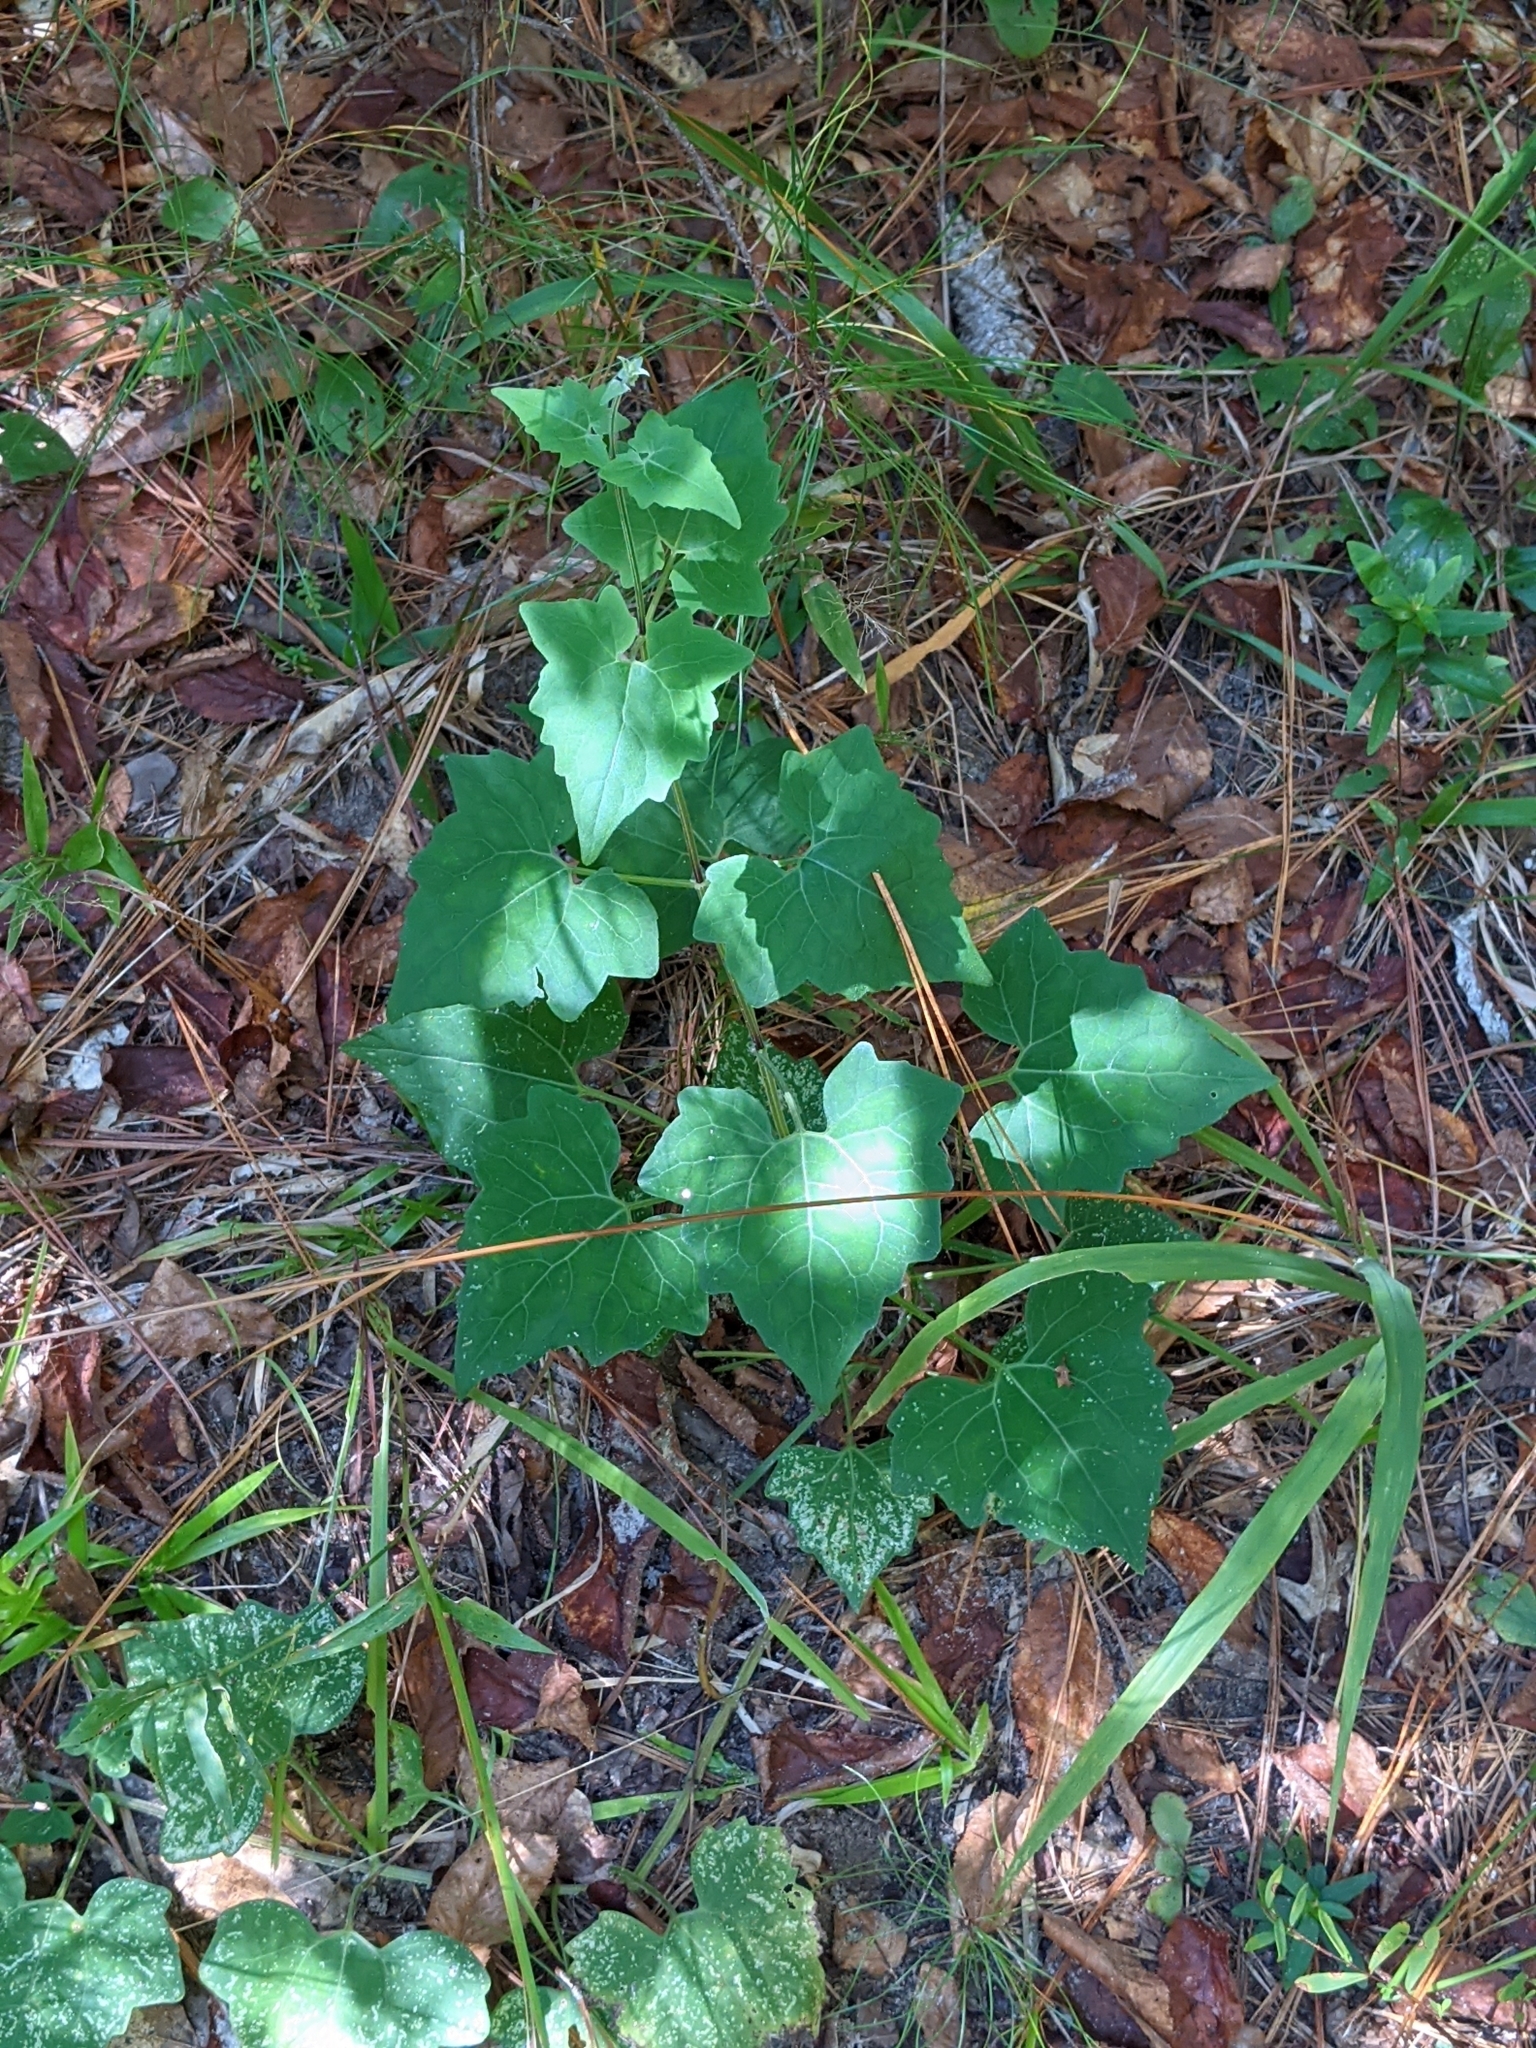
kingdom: Plantae
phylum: Tracheophyta
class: Magnoliopsida
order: Asterales
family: Asteraceae
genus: Mikania
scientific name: Mikania scandens
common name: Climbing hempvine
